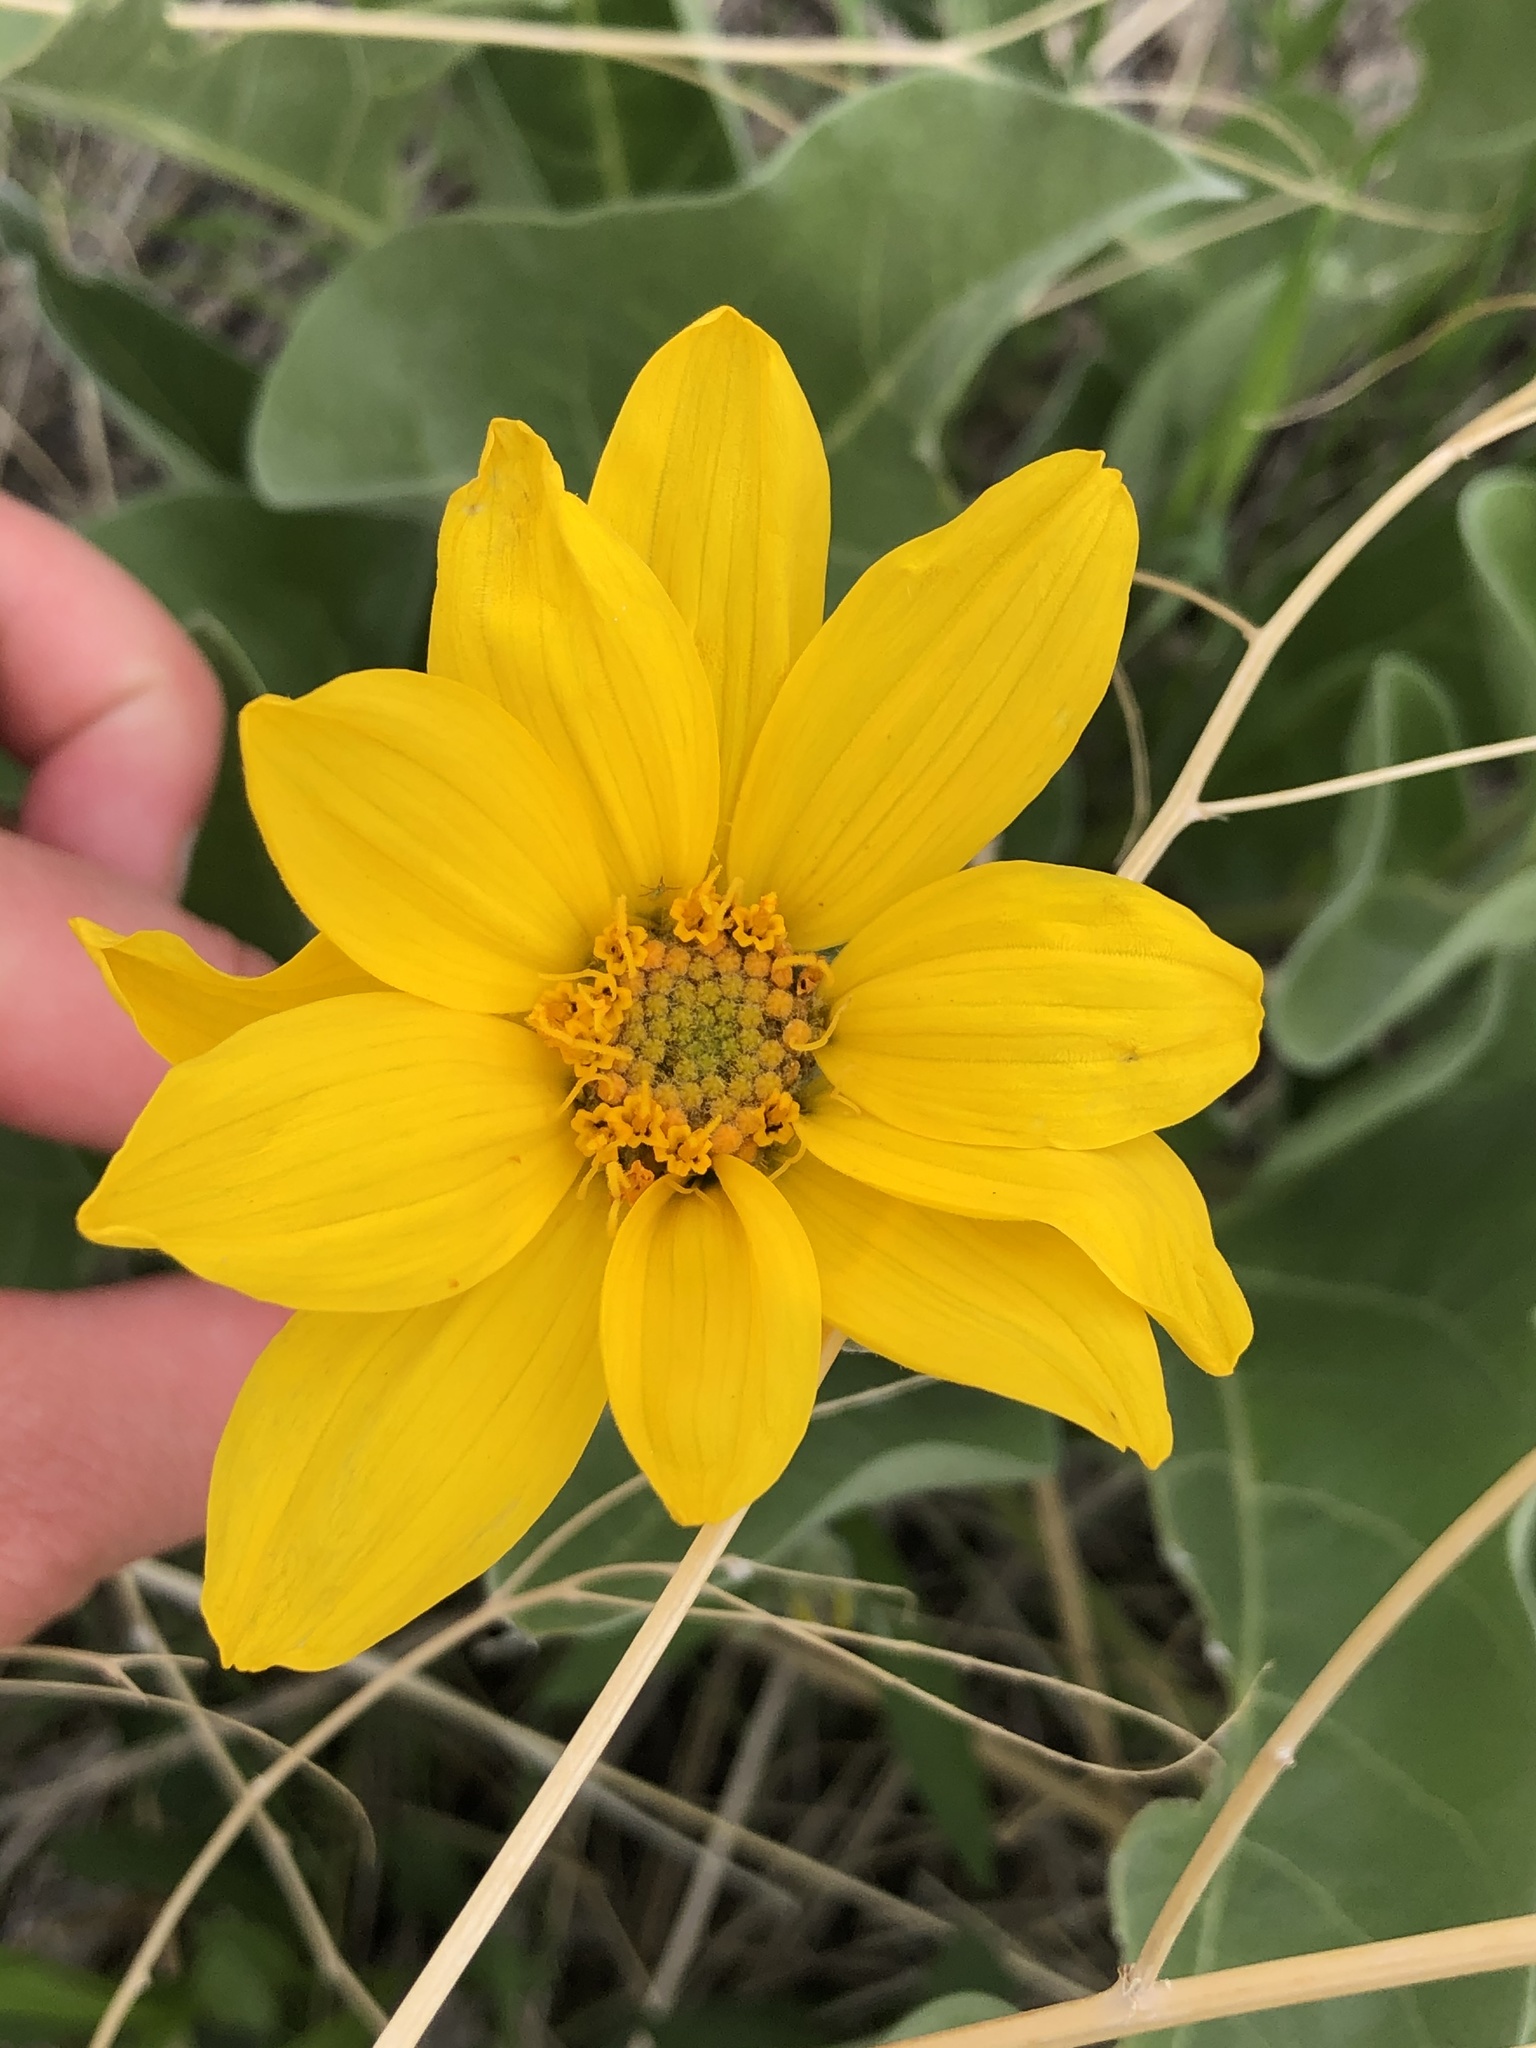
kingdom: Plantae
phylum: Tracheophyta
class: Magnoliopsida
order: Asterales
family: Asteraceae
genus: Wyethia
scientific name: Wyethia sagittata
